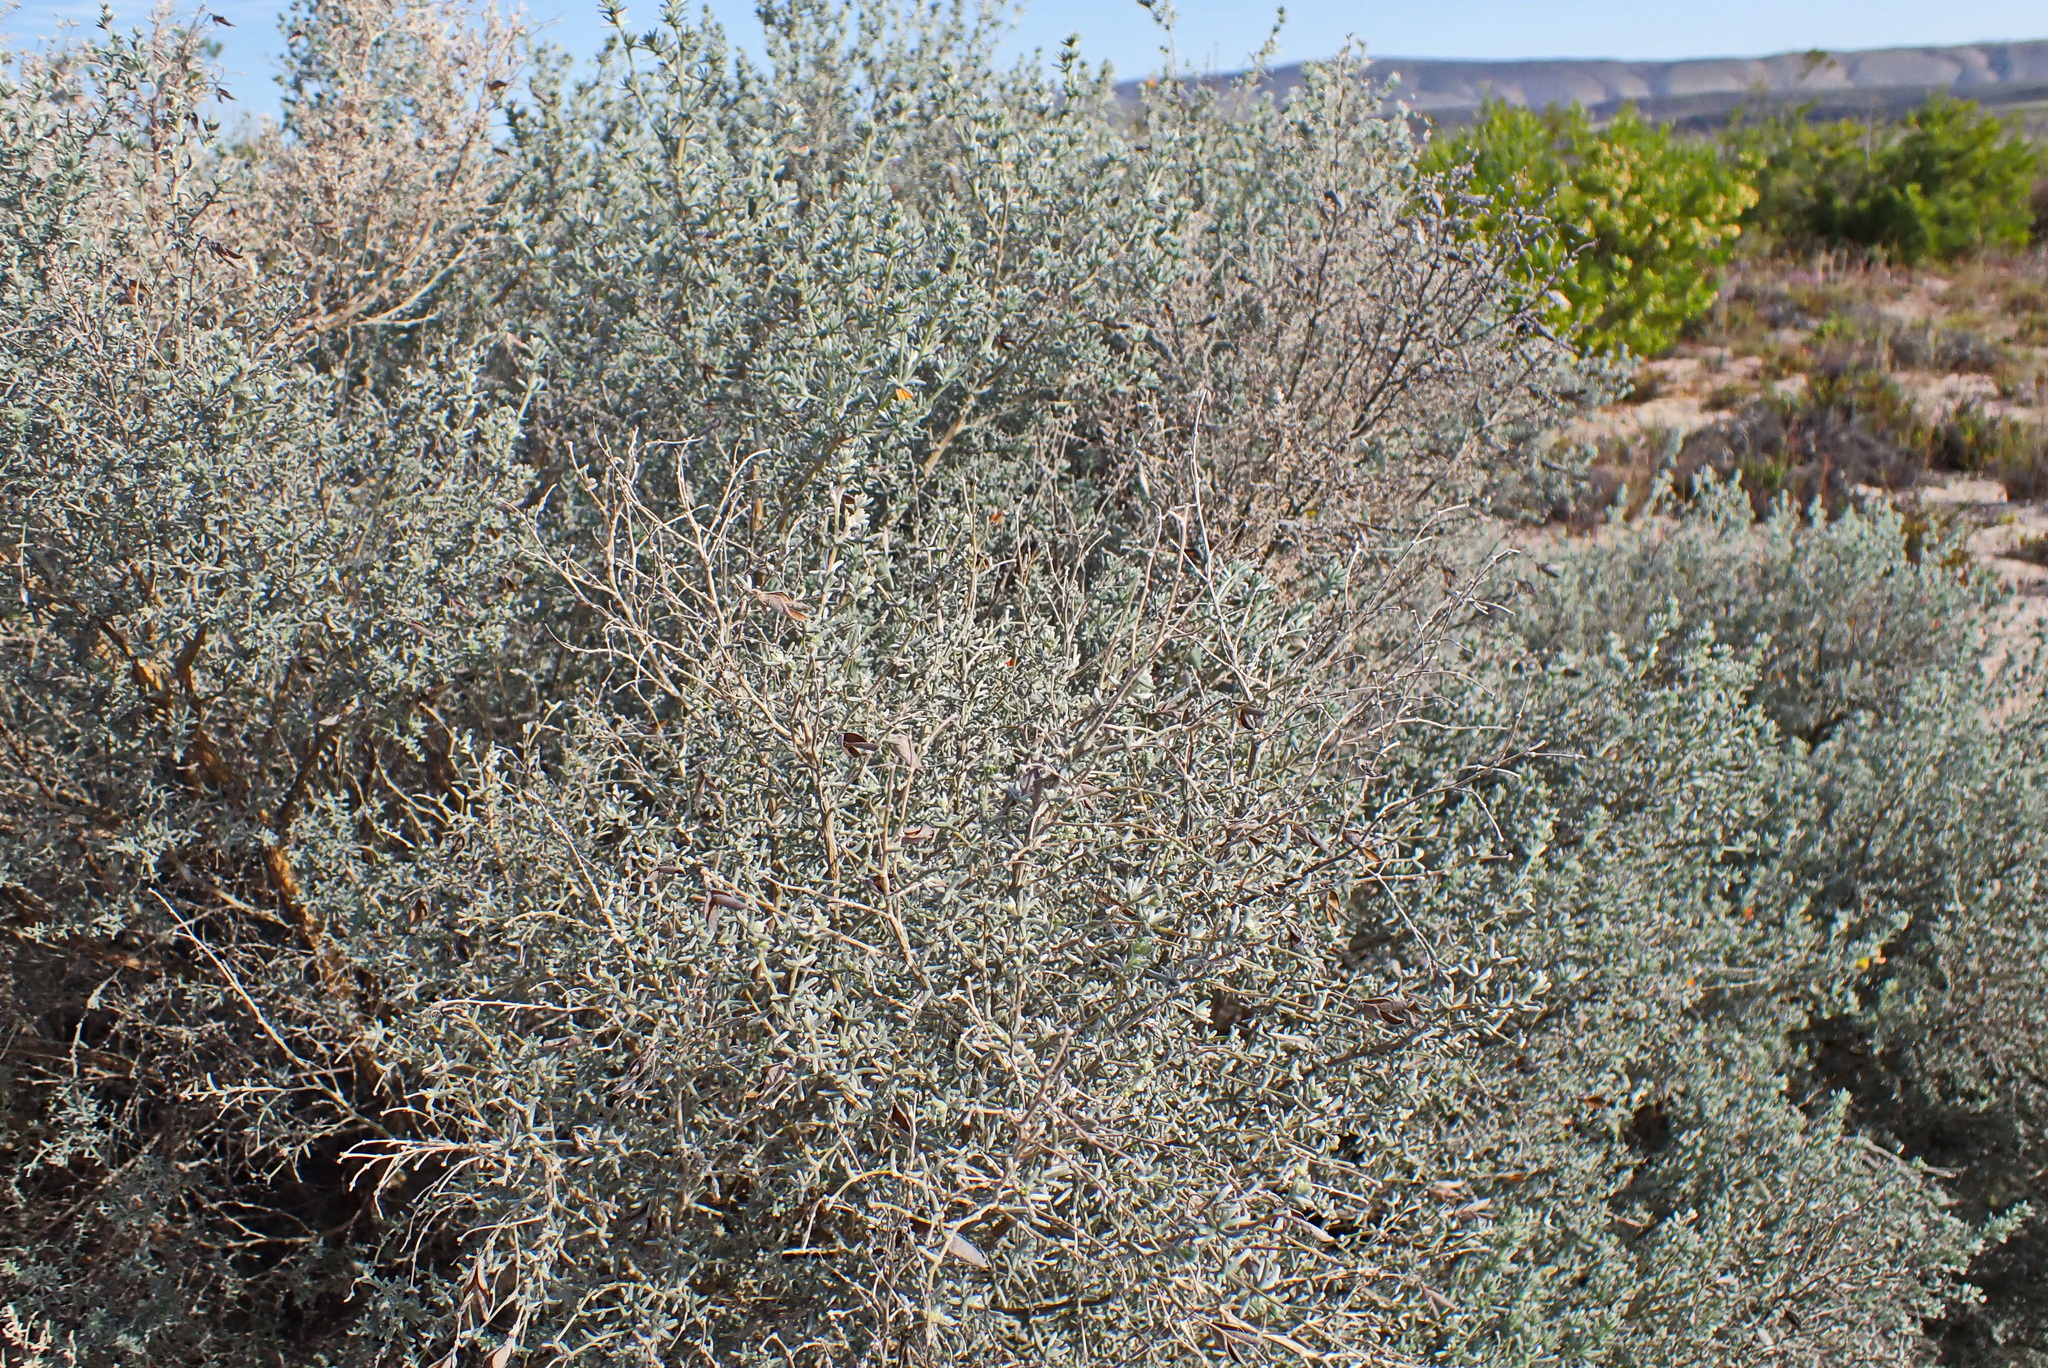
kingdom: Plantae
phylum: Tracheophyta
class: Magnoliopsida
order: Fabales
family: Fabaceae
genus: Aspalathus
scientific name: Aspalathus pedunculata
